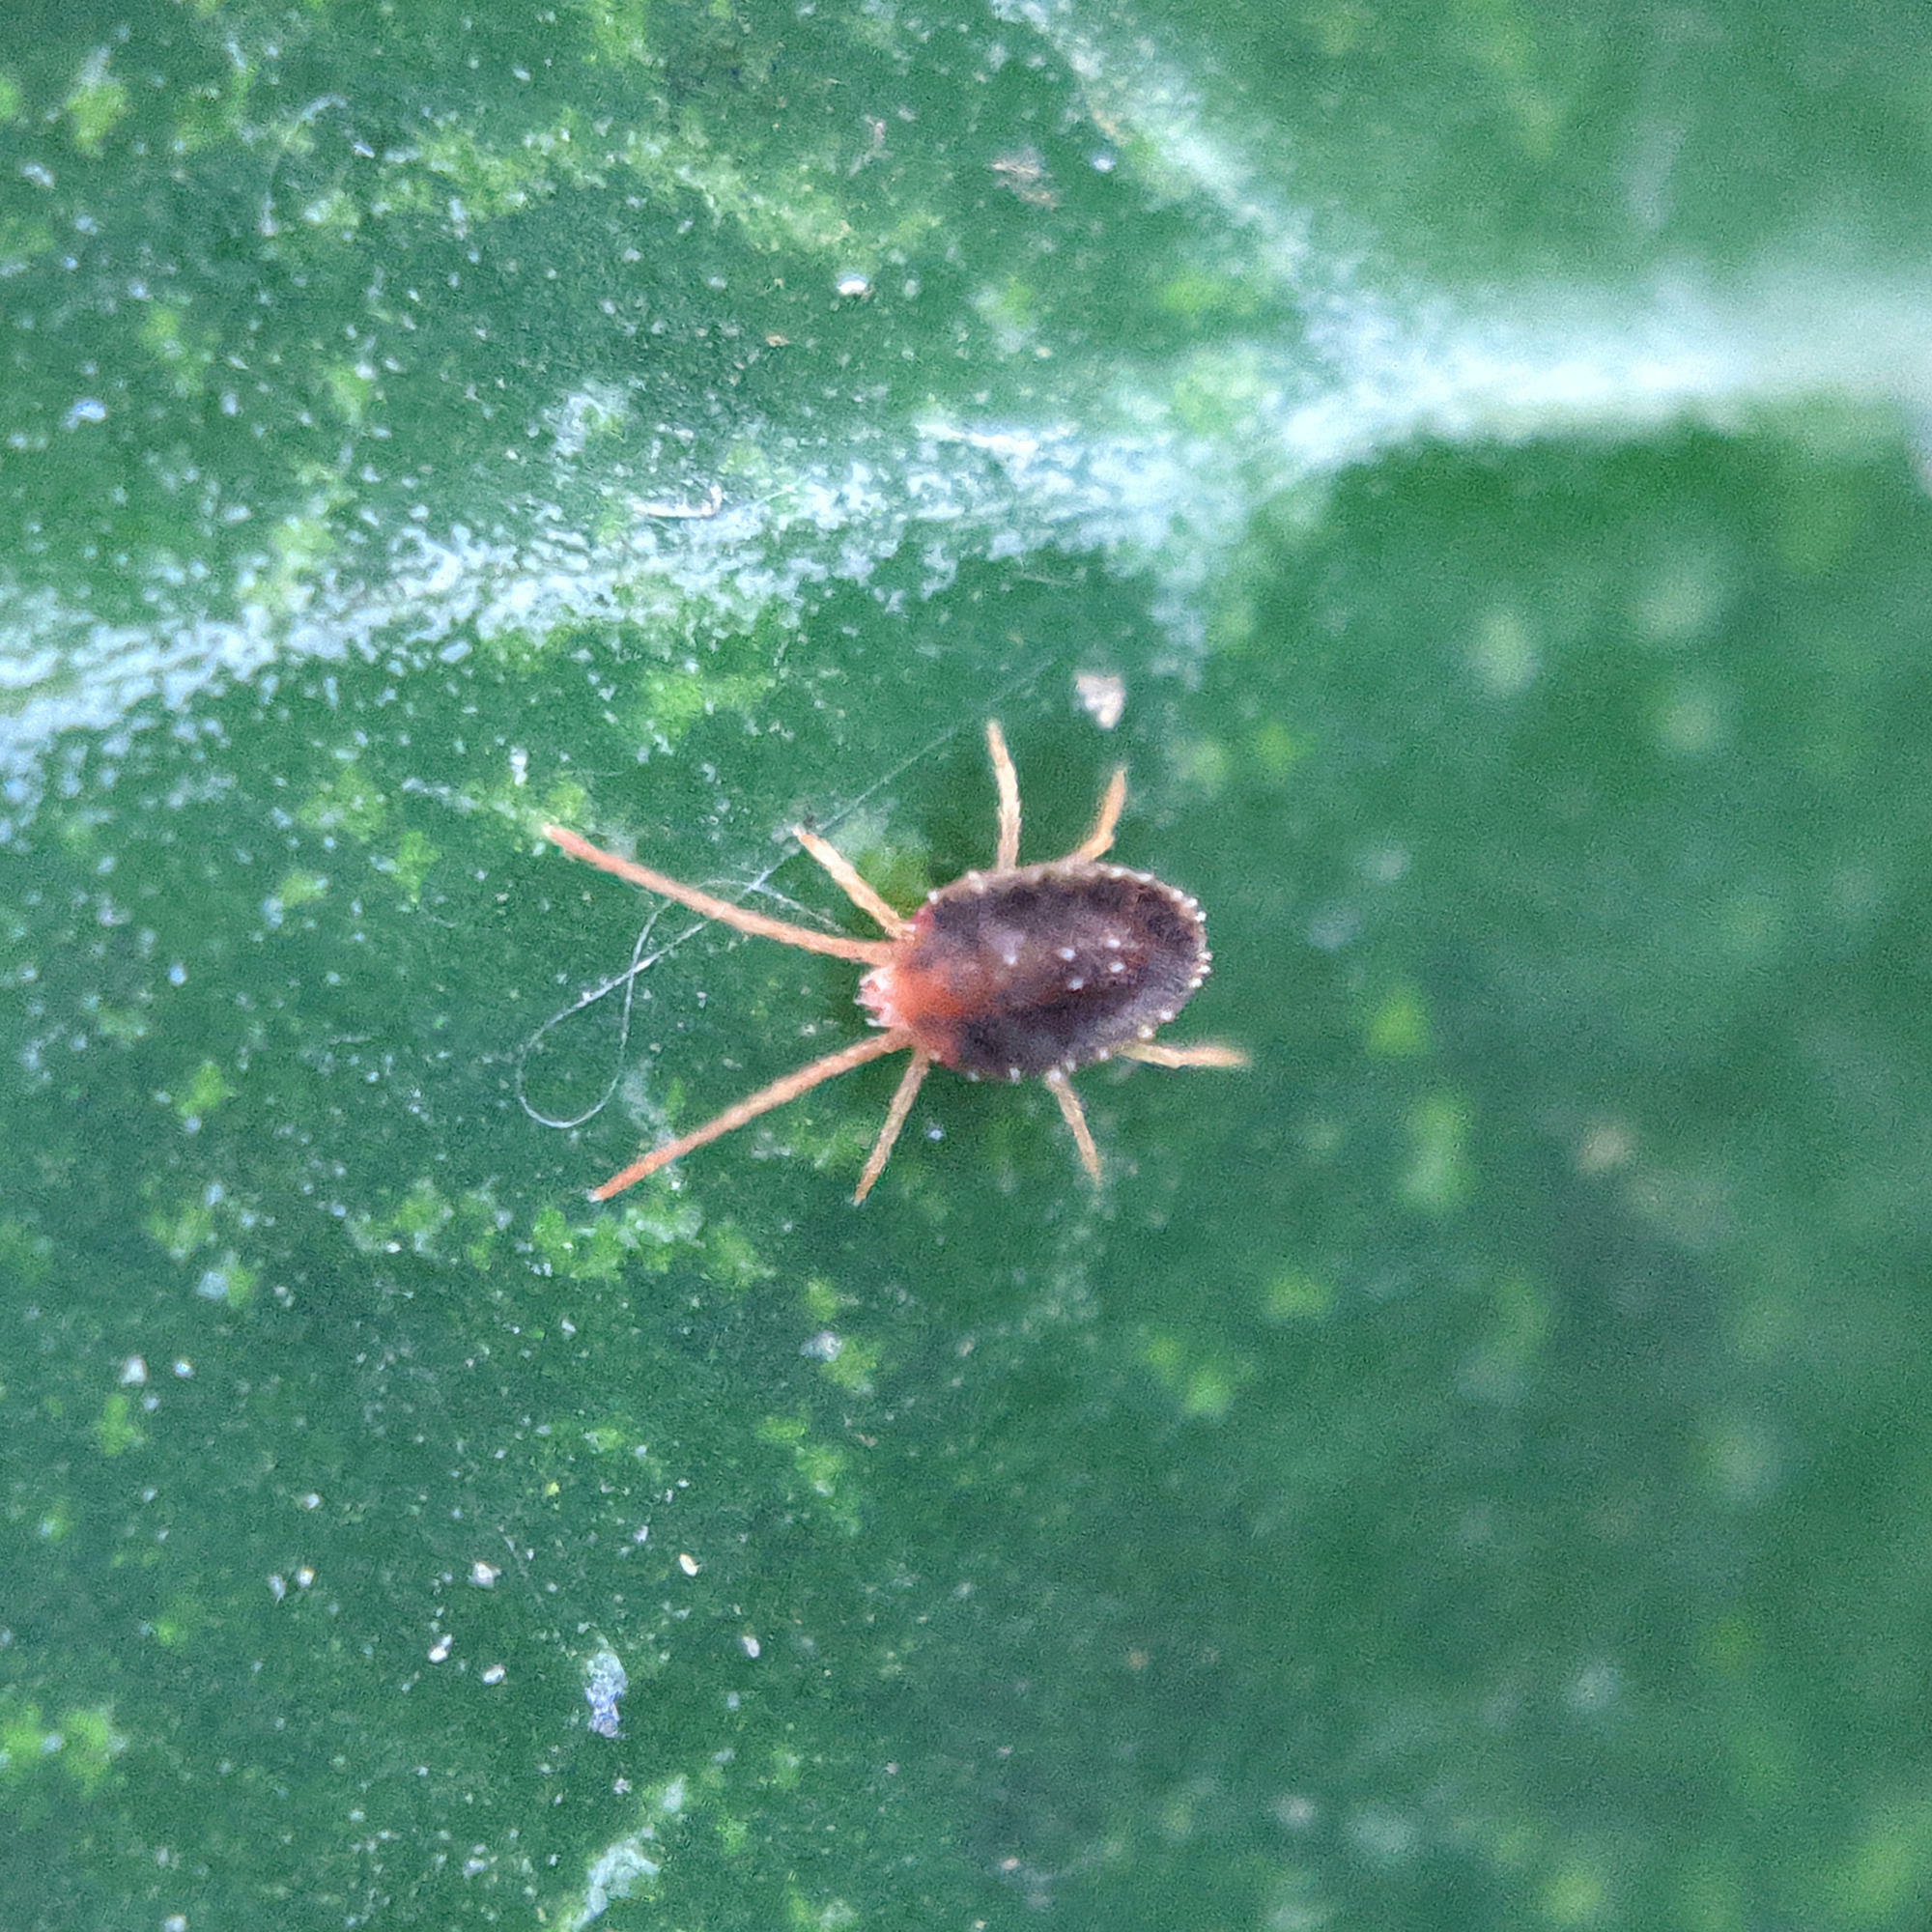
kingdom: Animalia
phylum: Arthropoda
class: Arachnida
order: Trombidiformes
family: Tetranychidae
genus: Bryobia
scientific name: Bryobia
